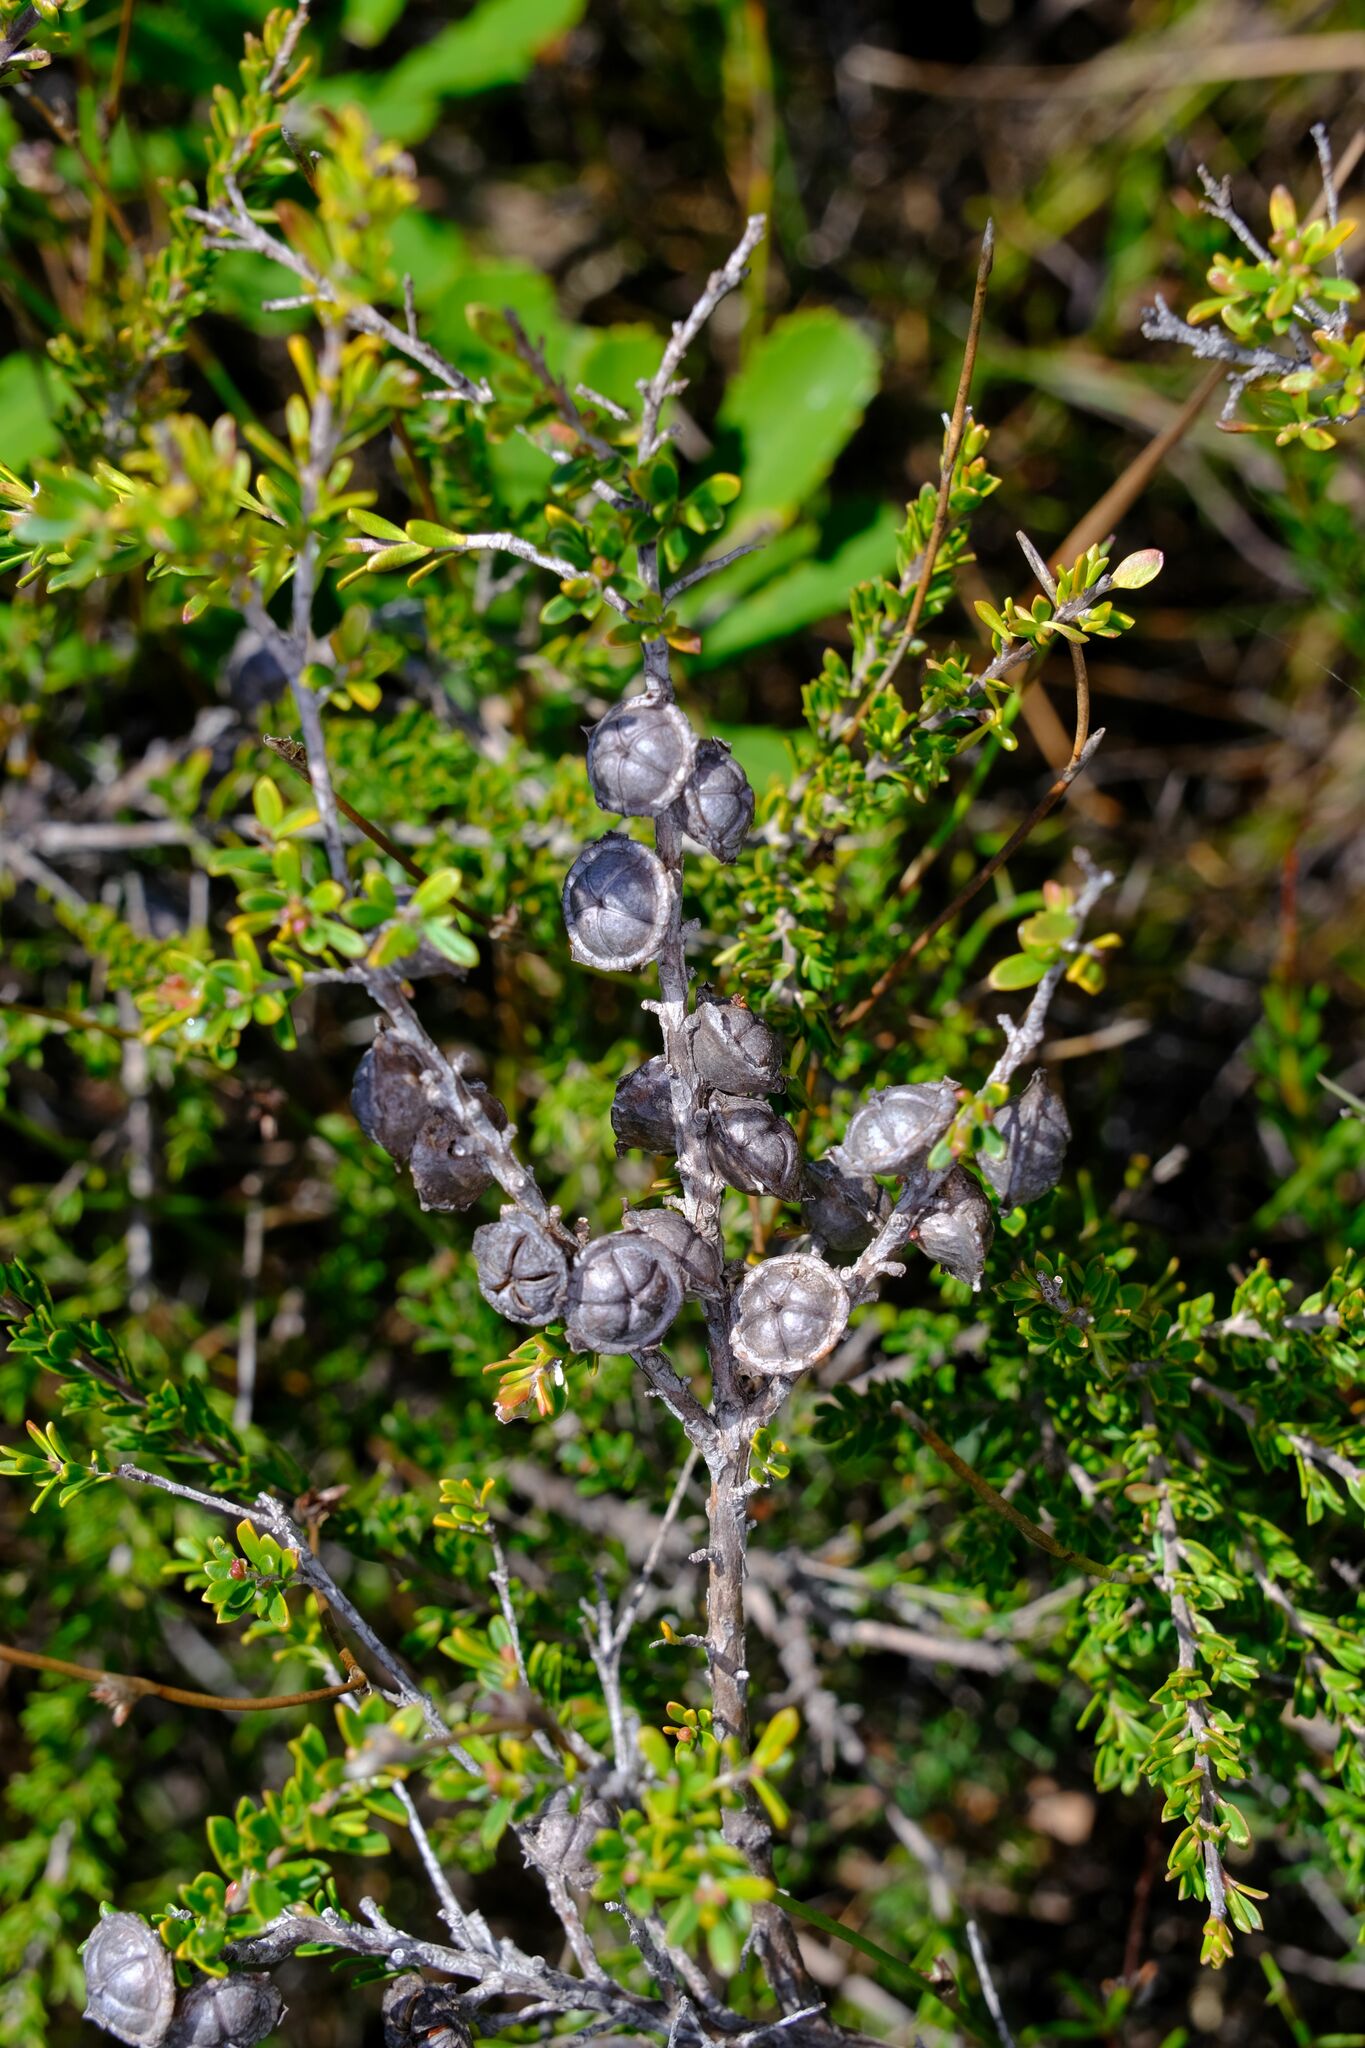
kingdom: Plantae
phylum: Tracheophyta
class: Magnoliopsida
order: Myrtales
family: Myrtaceae
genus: Leptospermum
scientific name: Leptospermum liversidgei
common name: Citron-scent teatree
